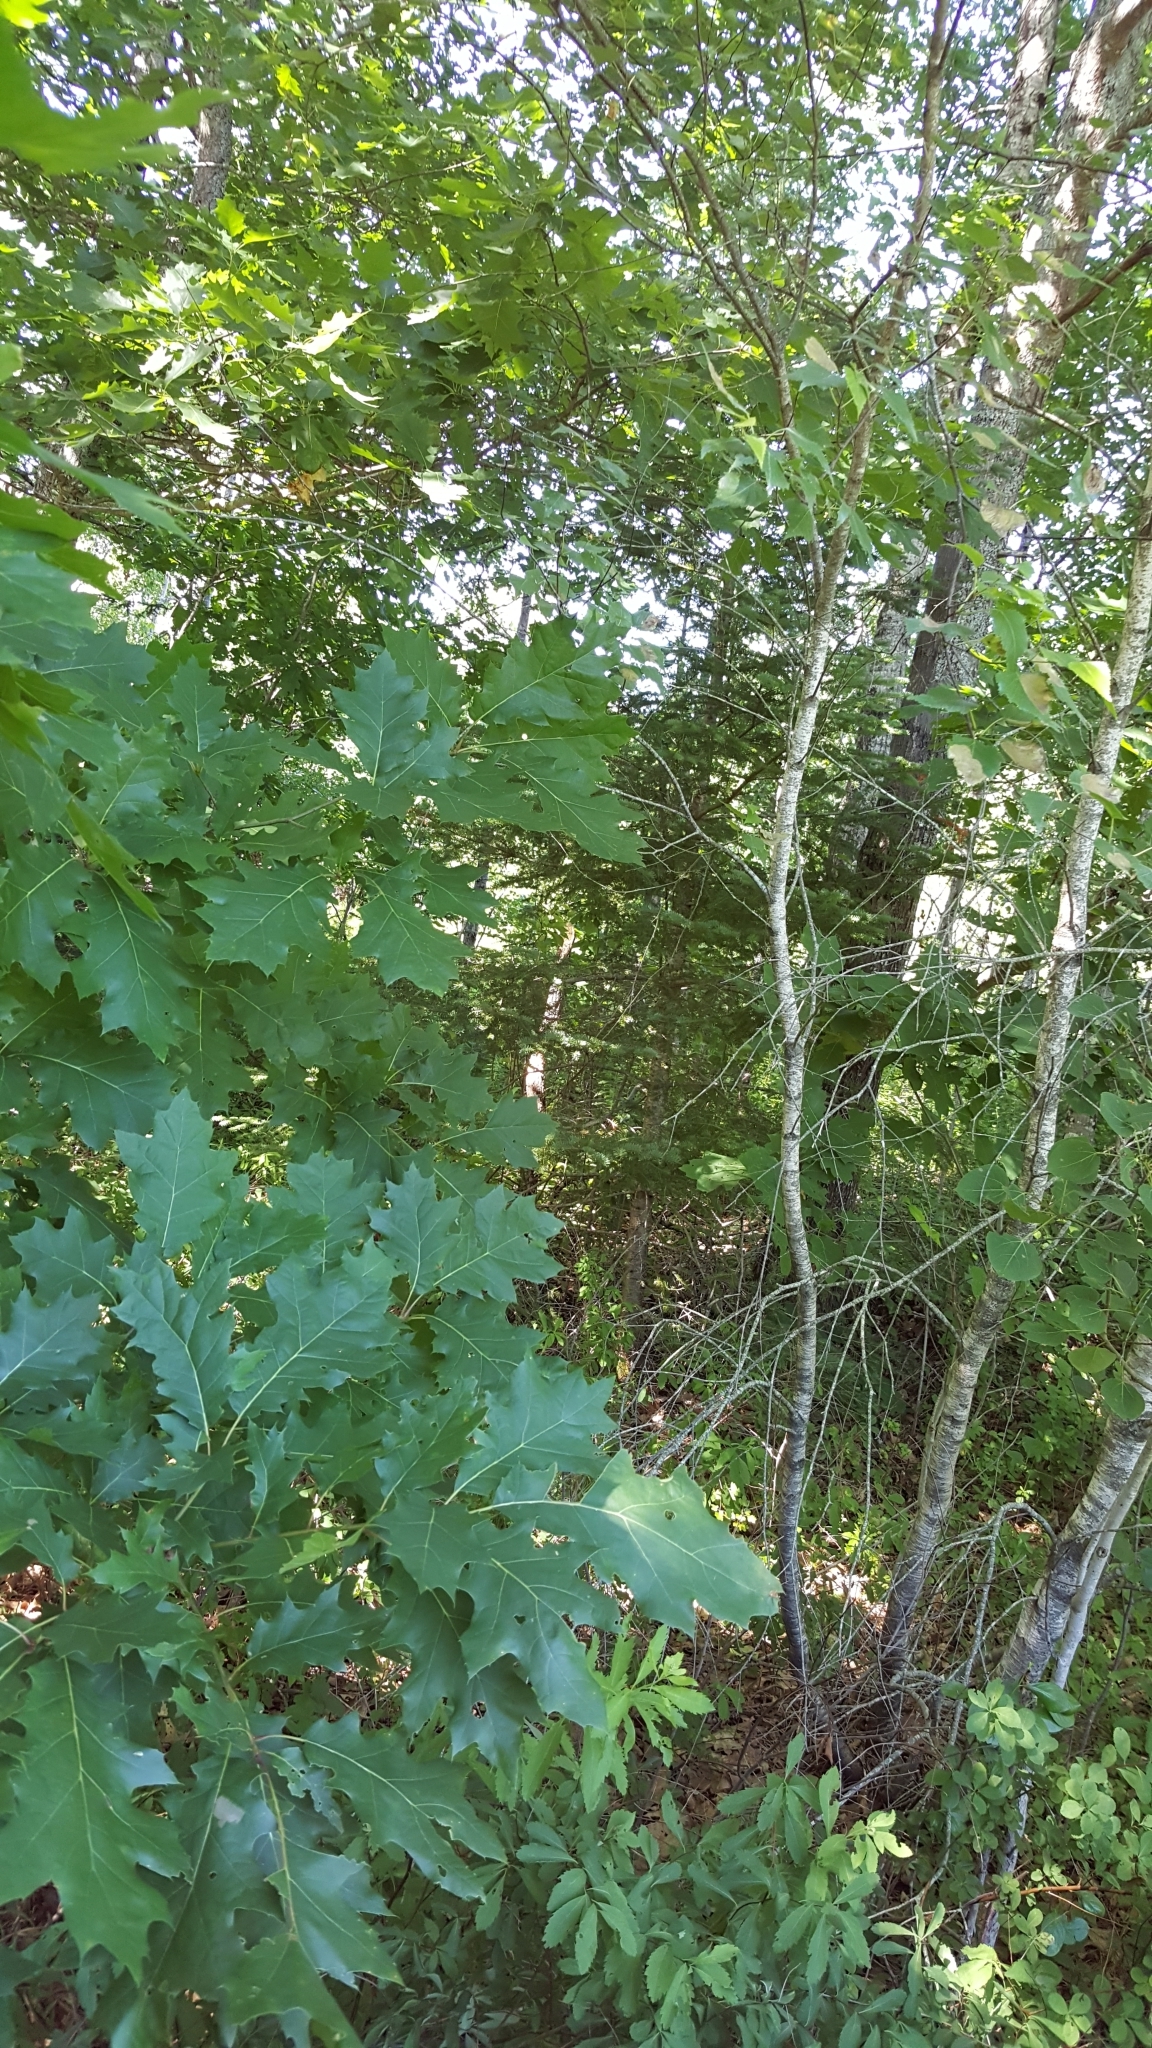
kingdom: Plantae
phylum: Tracheophyta
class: Magnoliopsida
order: Fagales
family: Fagaceae
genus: Quercus
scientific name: Quercus rubra
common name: Red oak
